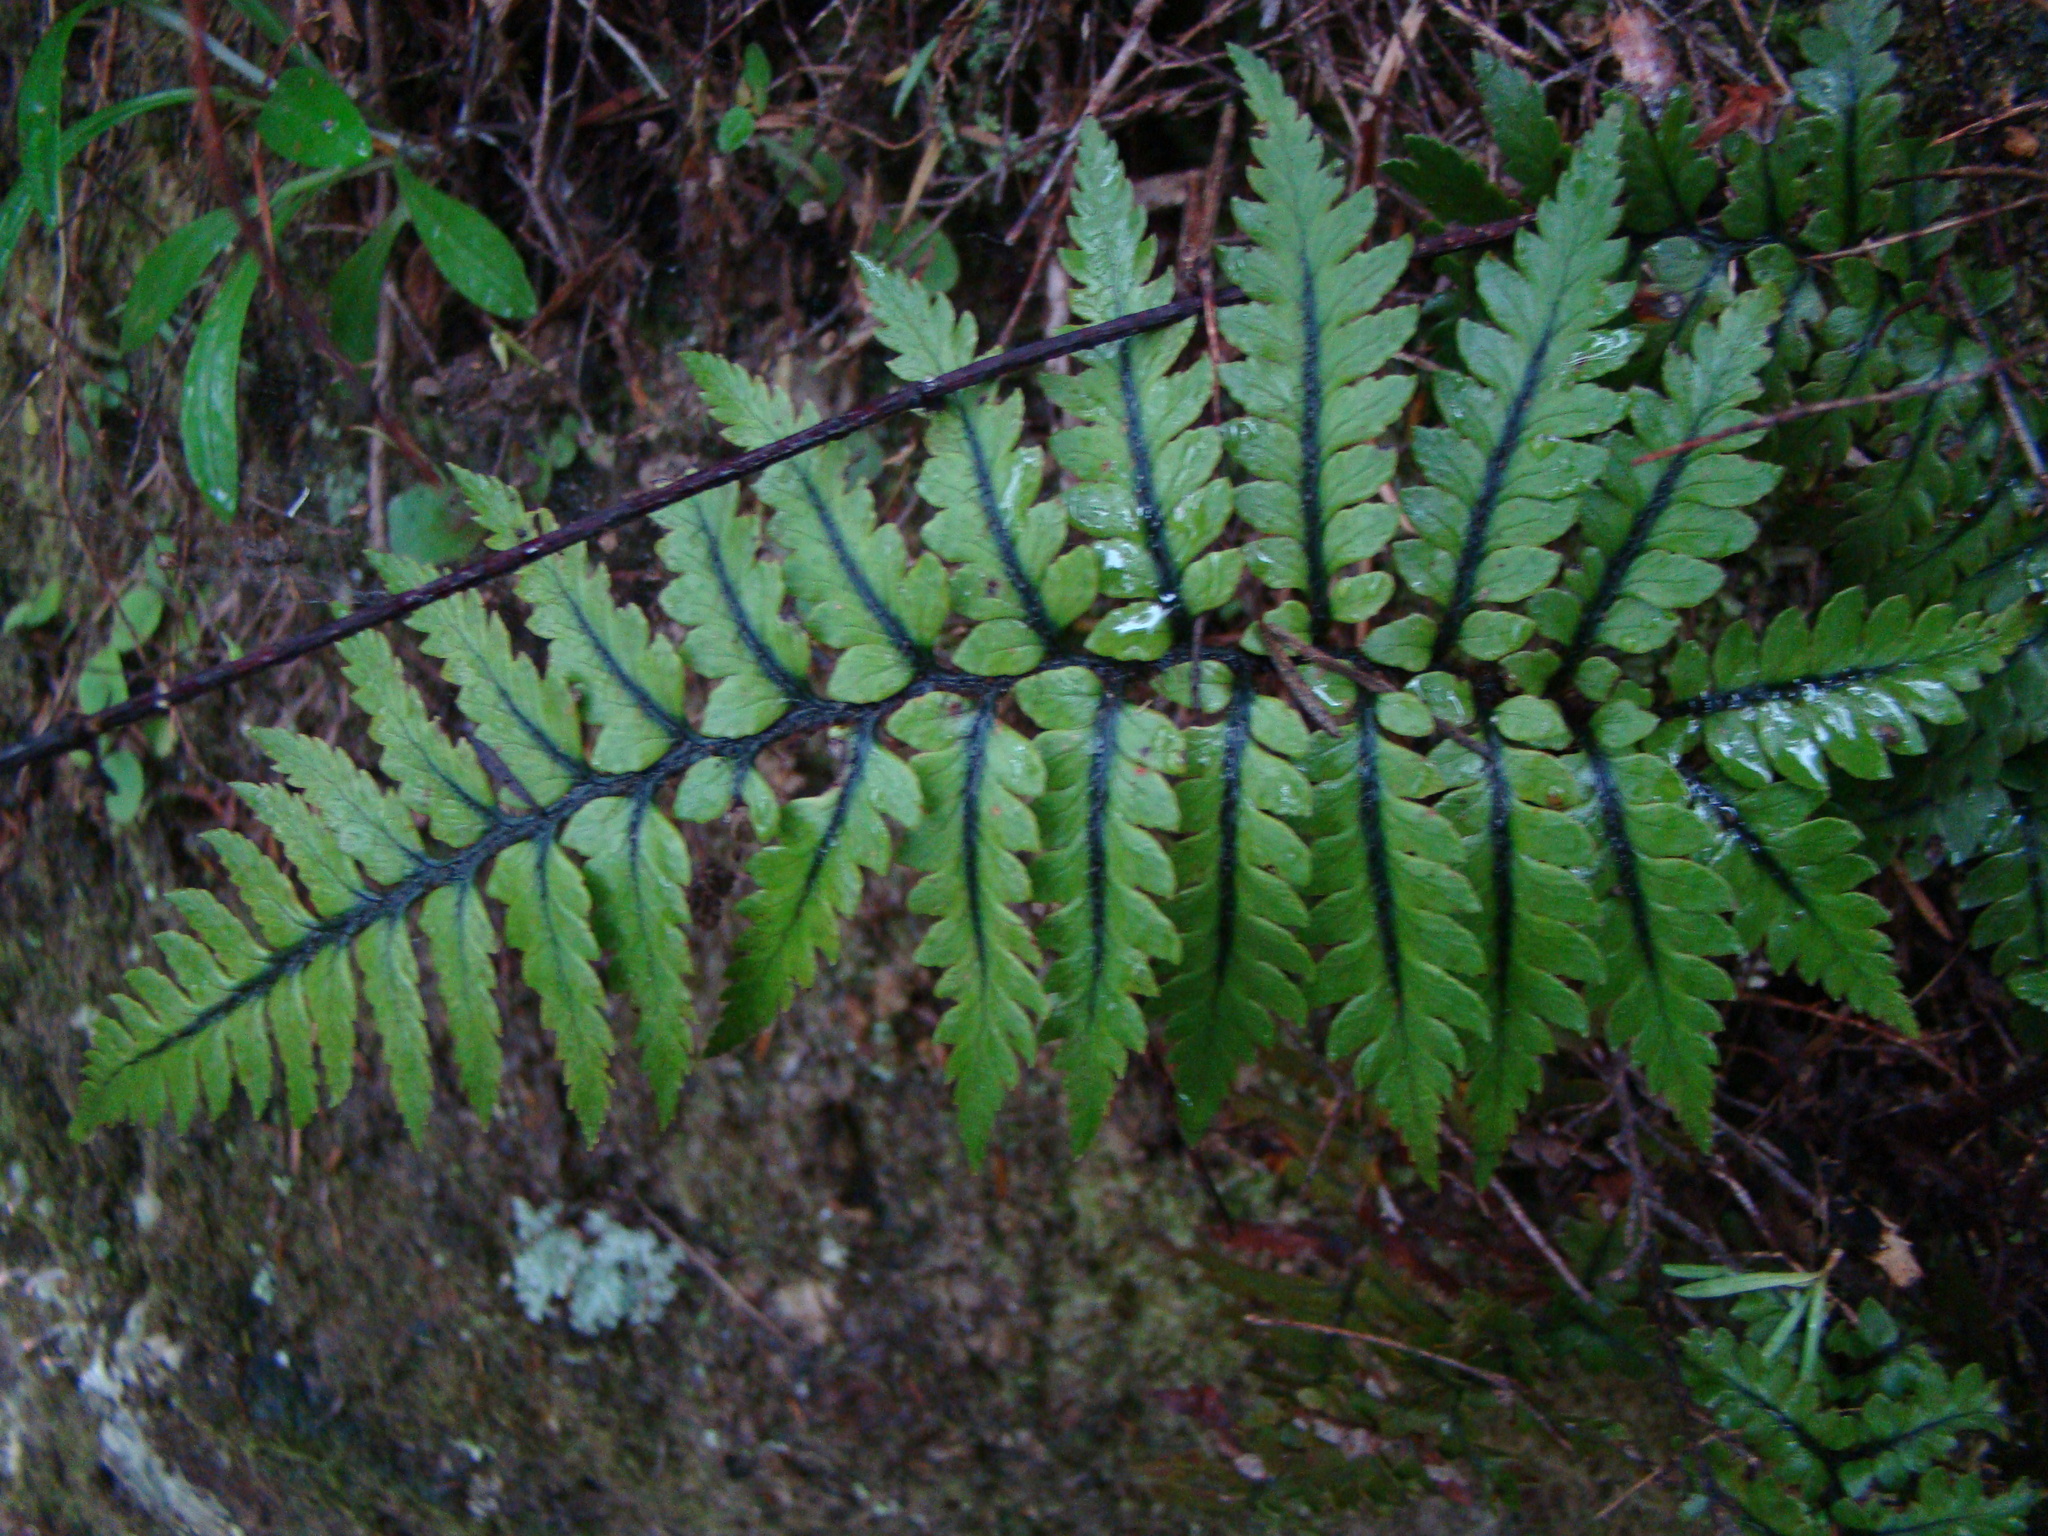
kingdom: Plantae
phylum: Tracheophyta
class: Polypodiopsida
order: Polypodiales
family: Dryopteridaceae
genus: Polystichum
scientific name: Polystichum wawranum
